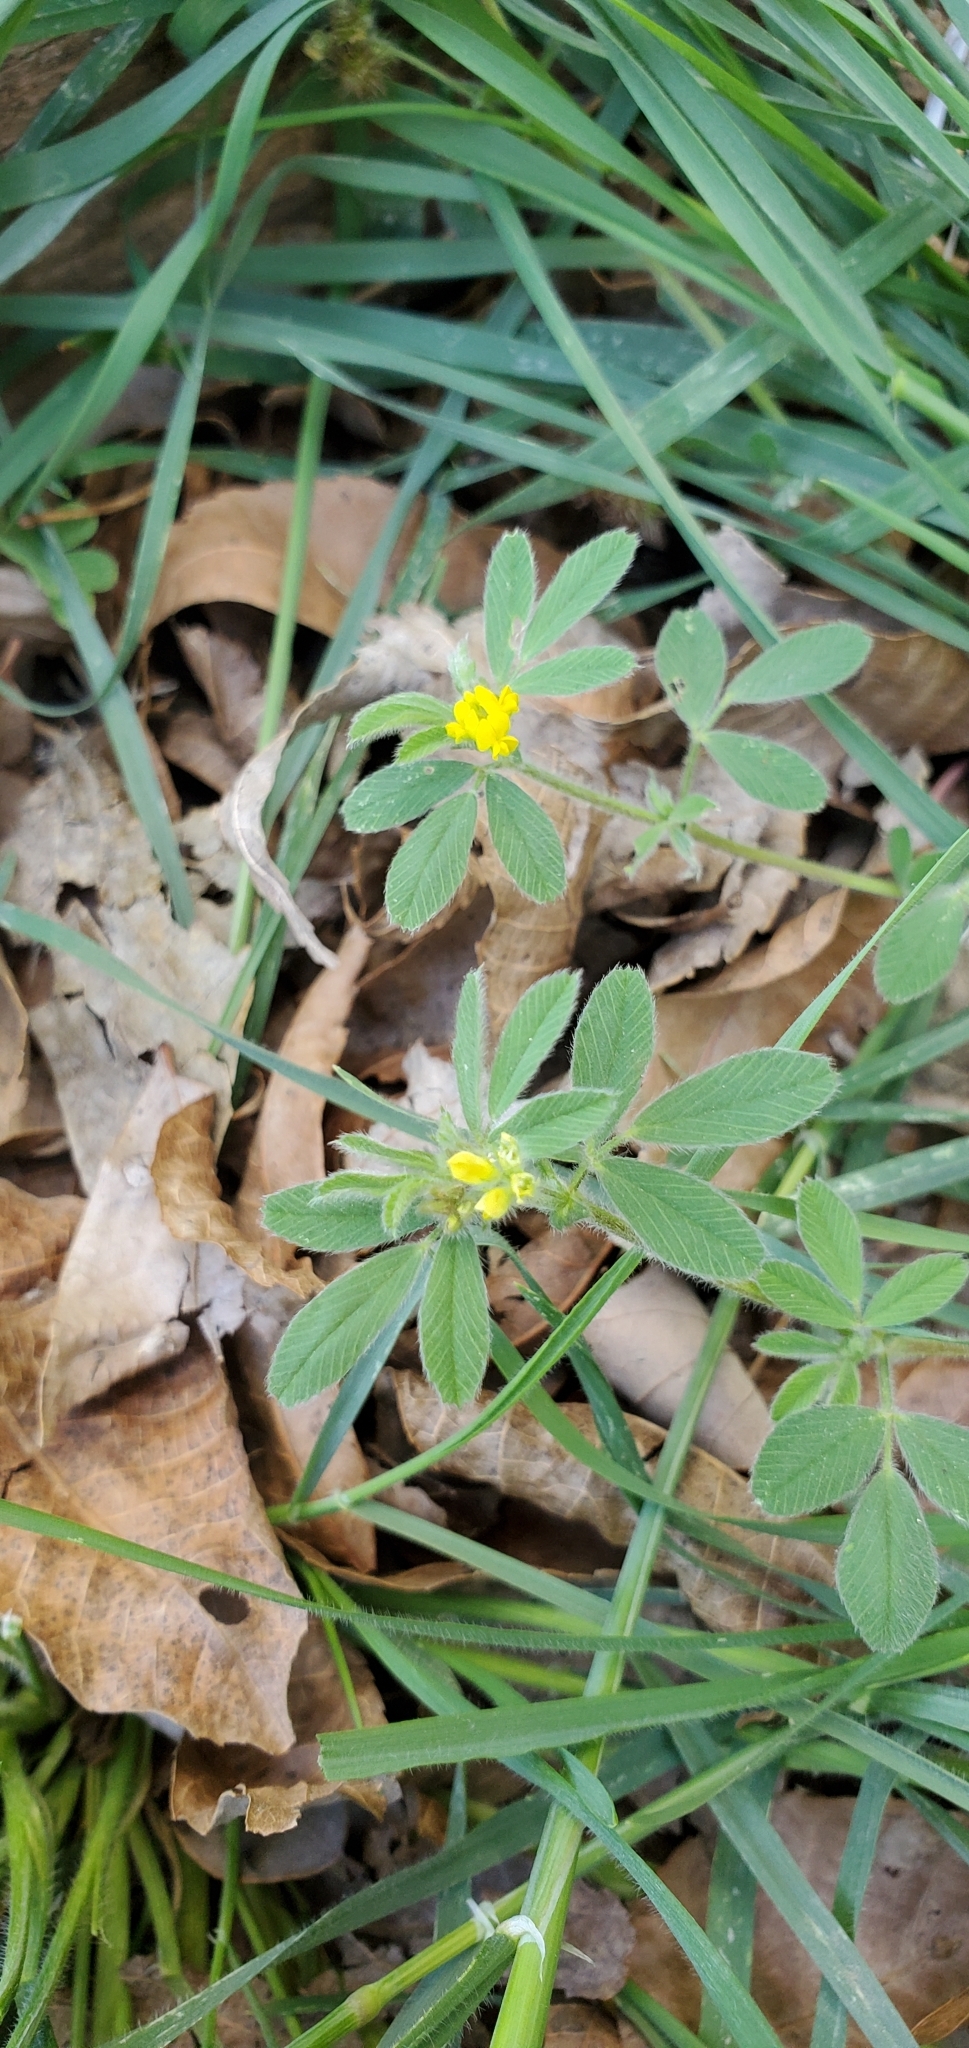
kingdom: Plantae
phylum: Tracheophyta
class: Magnoliopsida
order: Fabales
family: Fabaceae
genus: Medicago
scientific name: Medicago minima
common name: Little bur-clover
